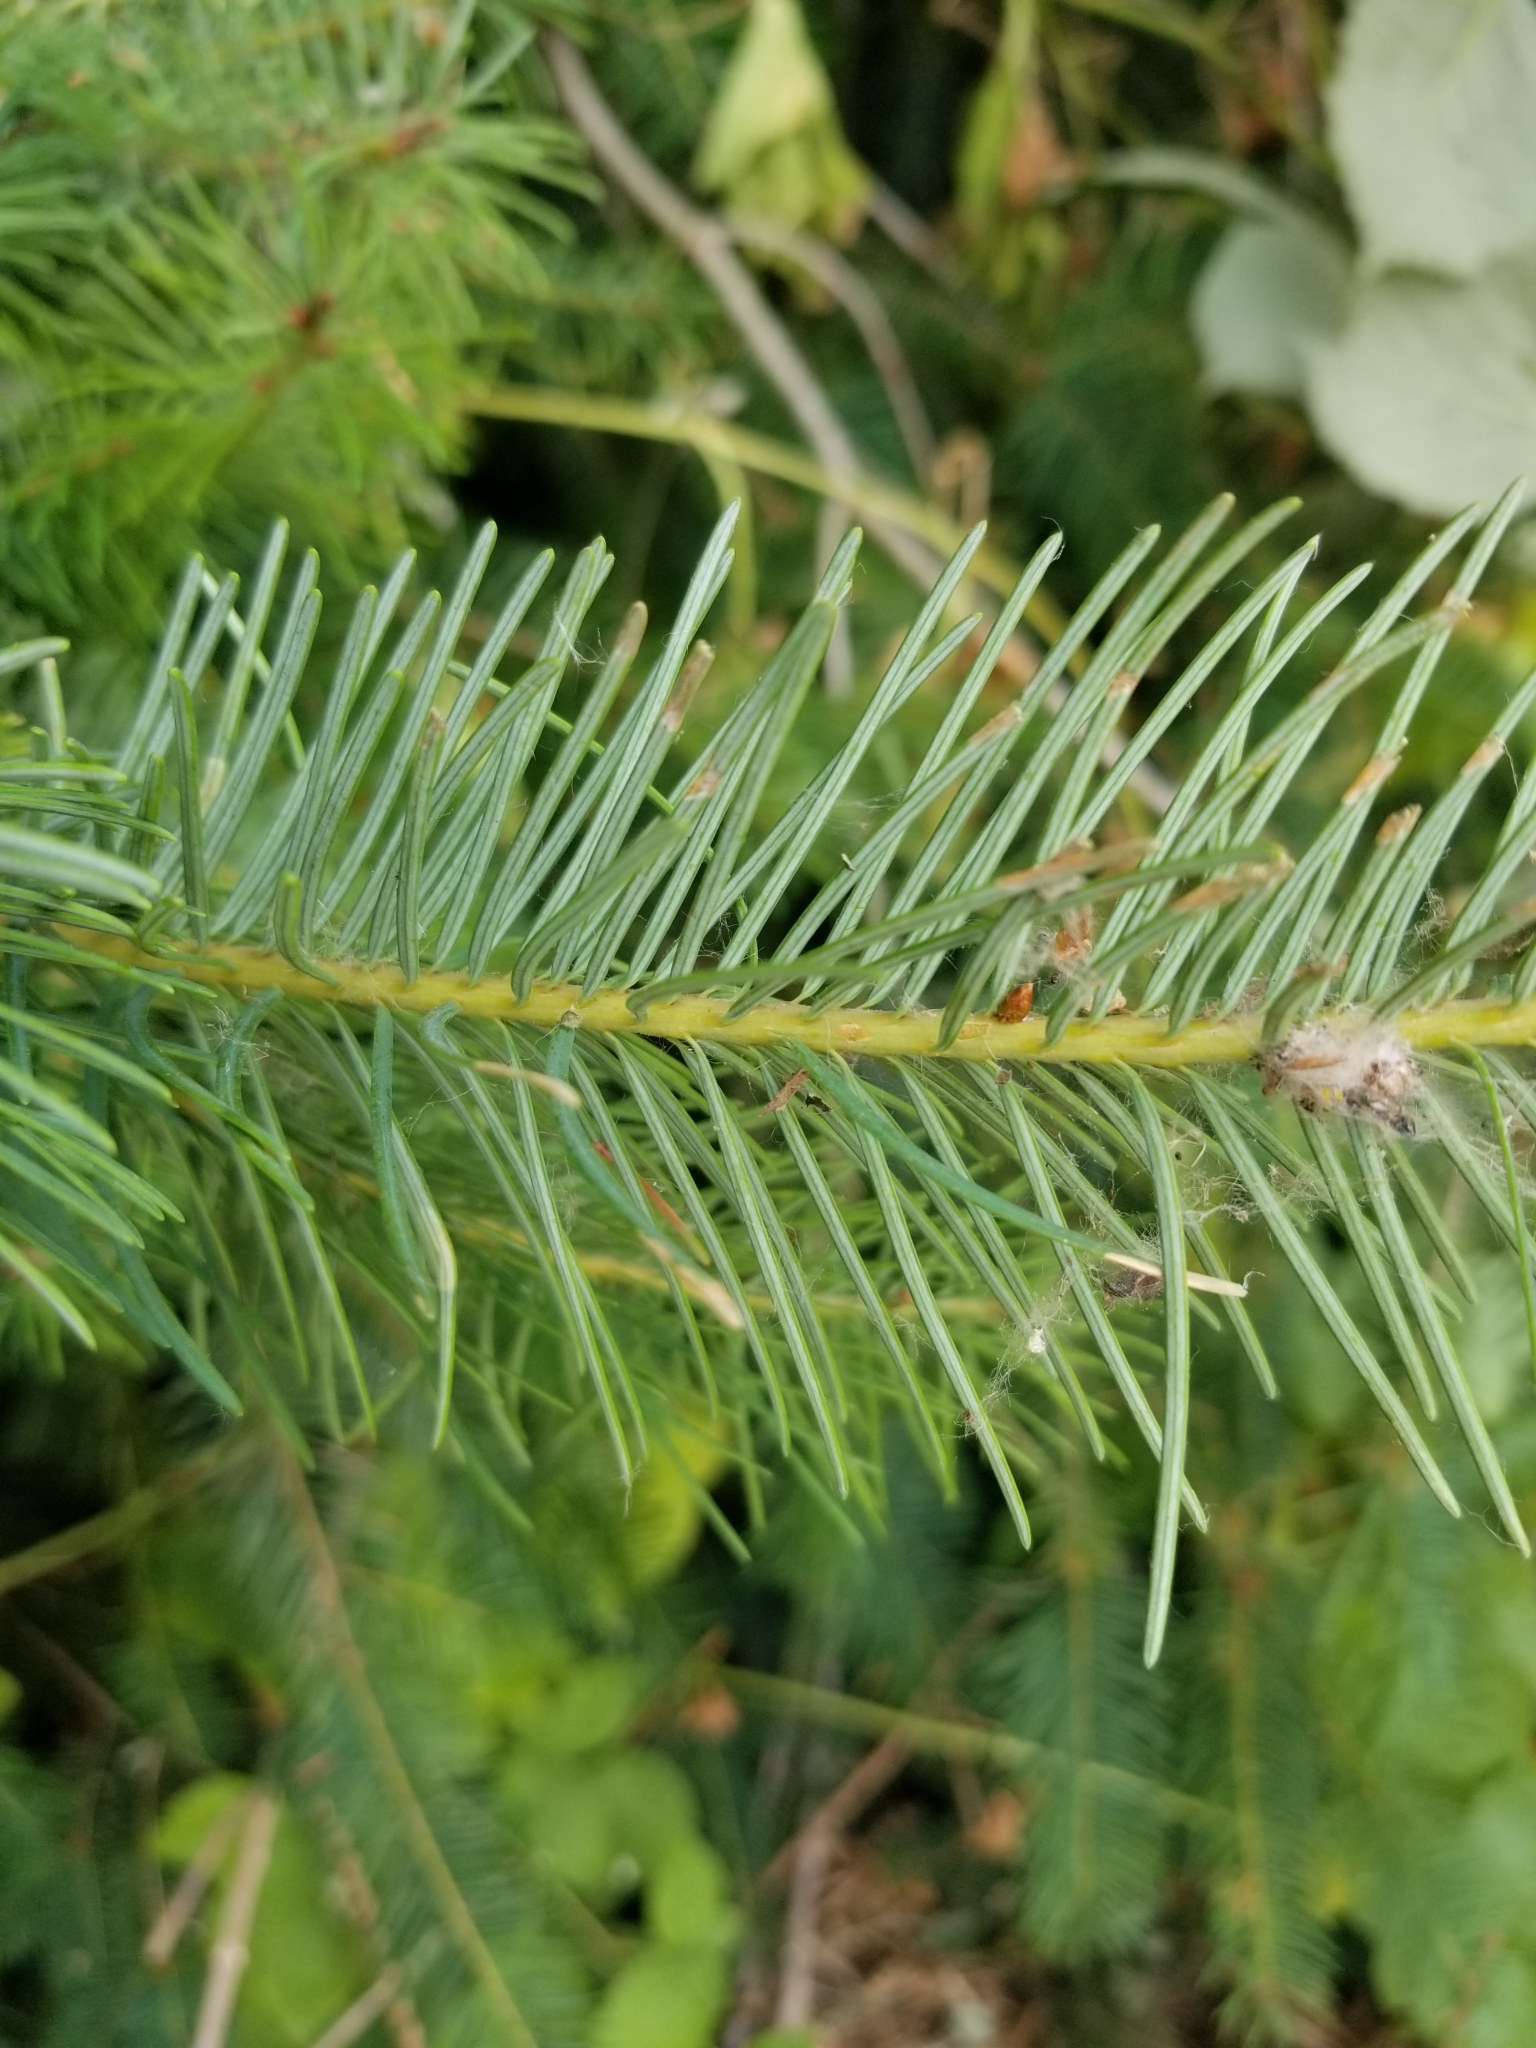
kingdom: Plantae
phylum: Tracheophyta
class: Pinopsida
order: Pinales
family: Pinaceae
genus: Pseudotsuga
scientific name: Pseudotsuga menziesii
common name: Douglas fir
